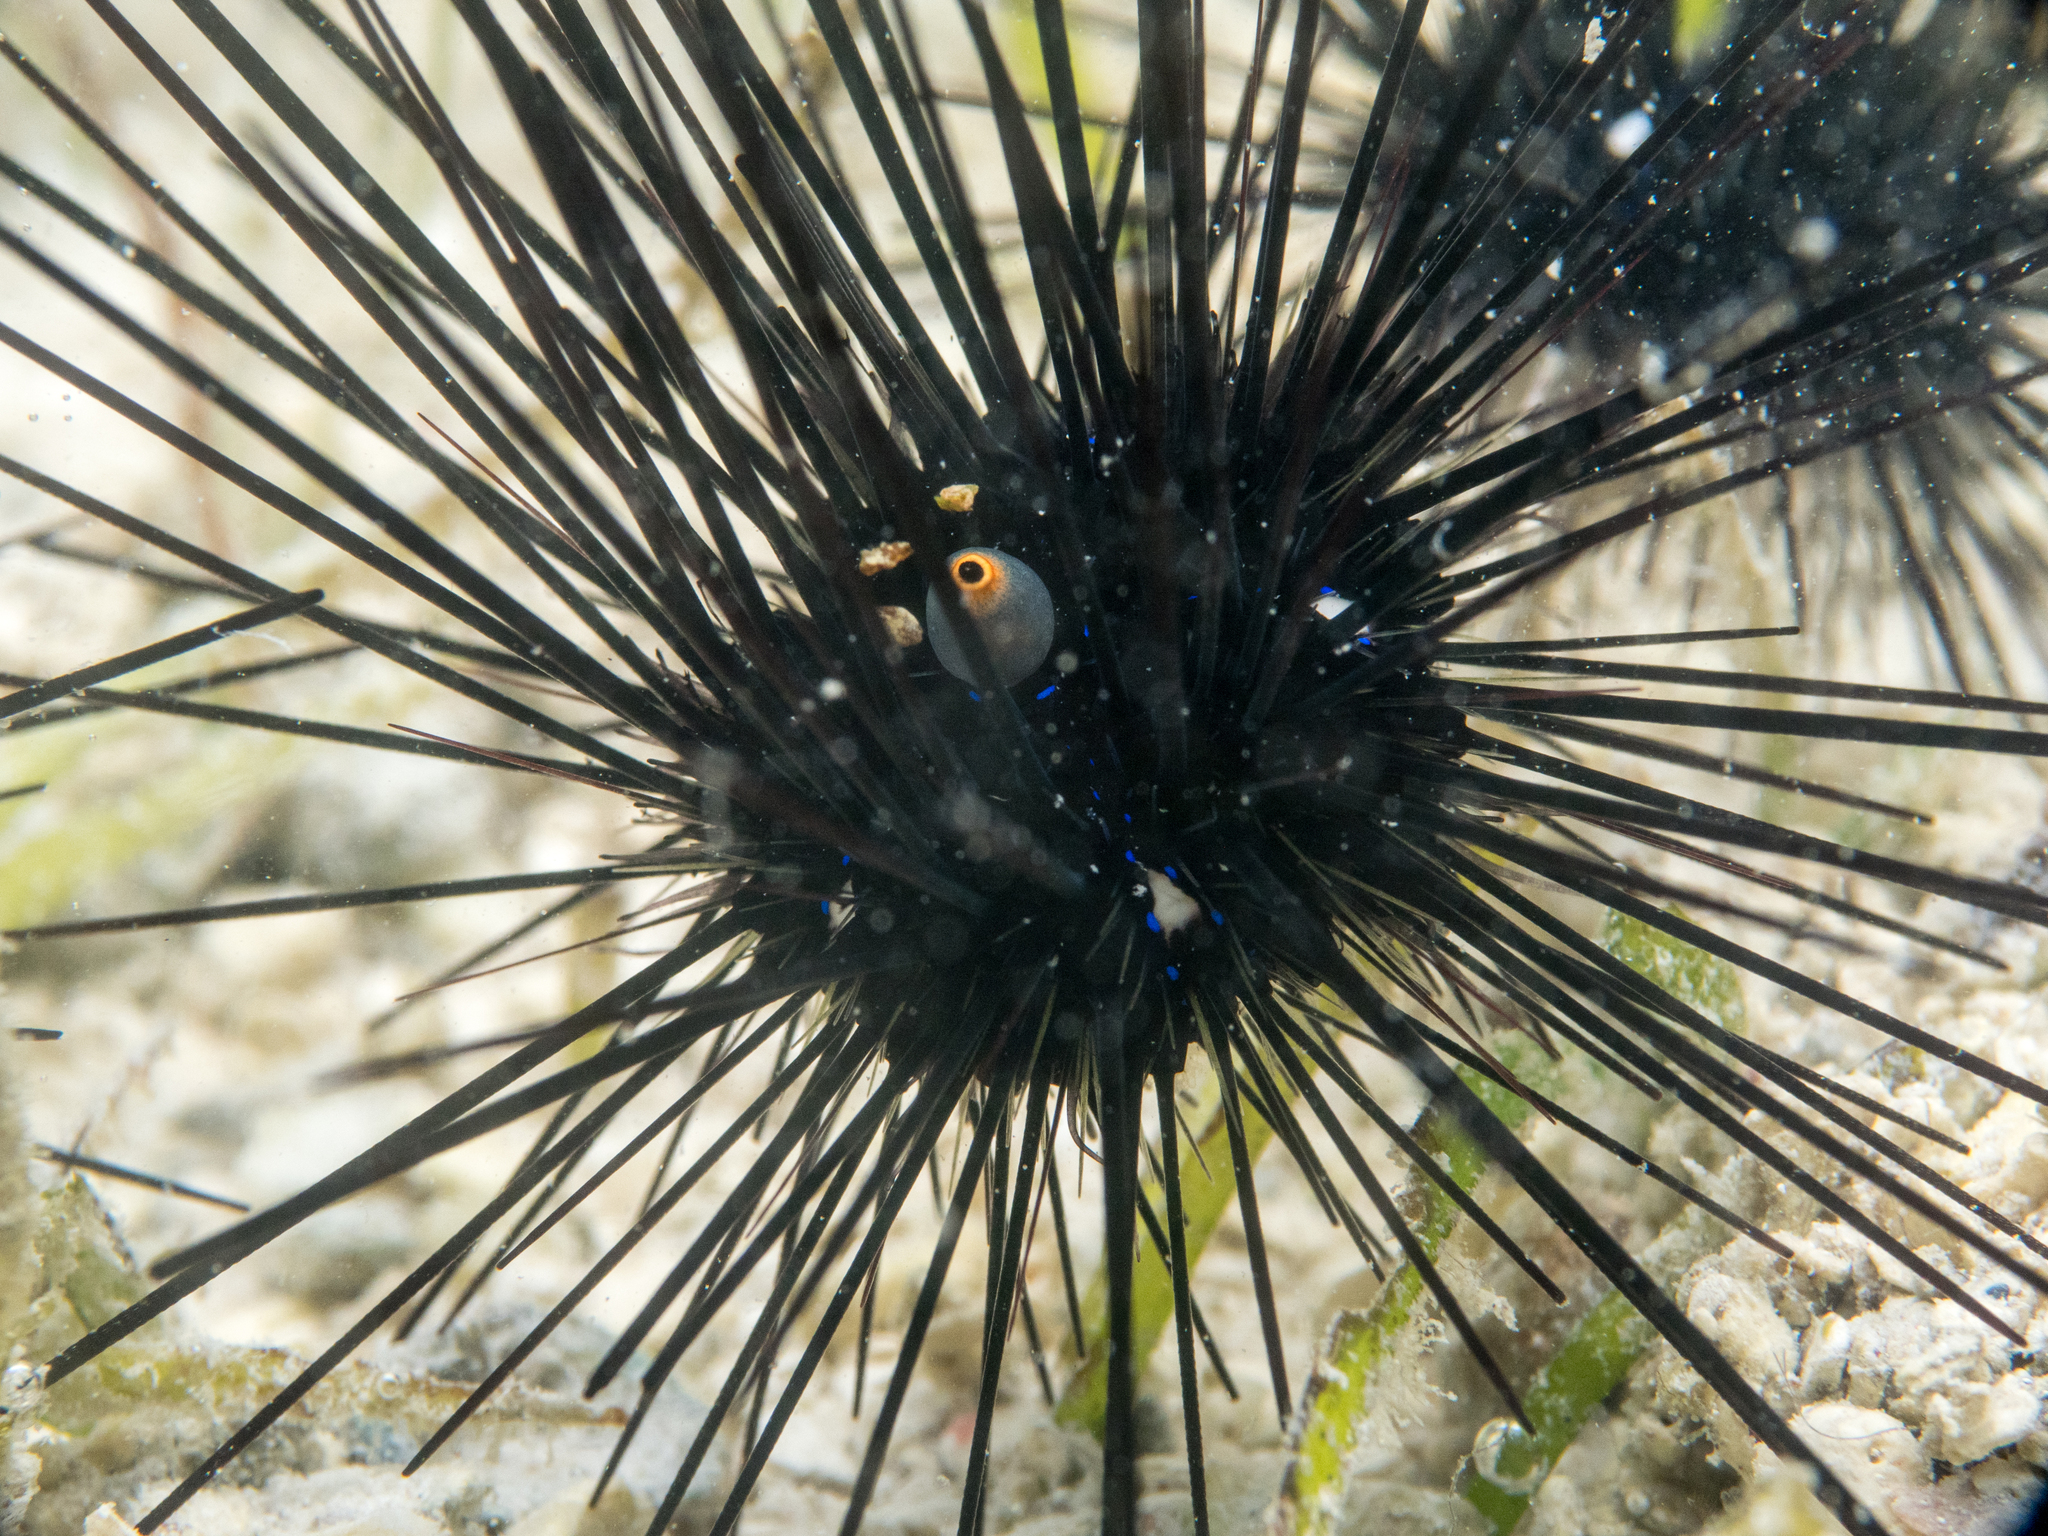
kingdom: Animalia
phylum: Echinodermata
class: Echinoidea
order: Diadematoida
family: Diadematidae
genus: Diadema
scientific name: Diadema setosum
